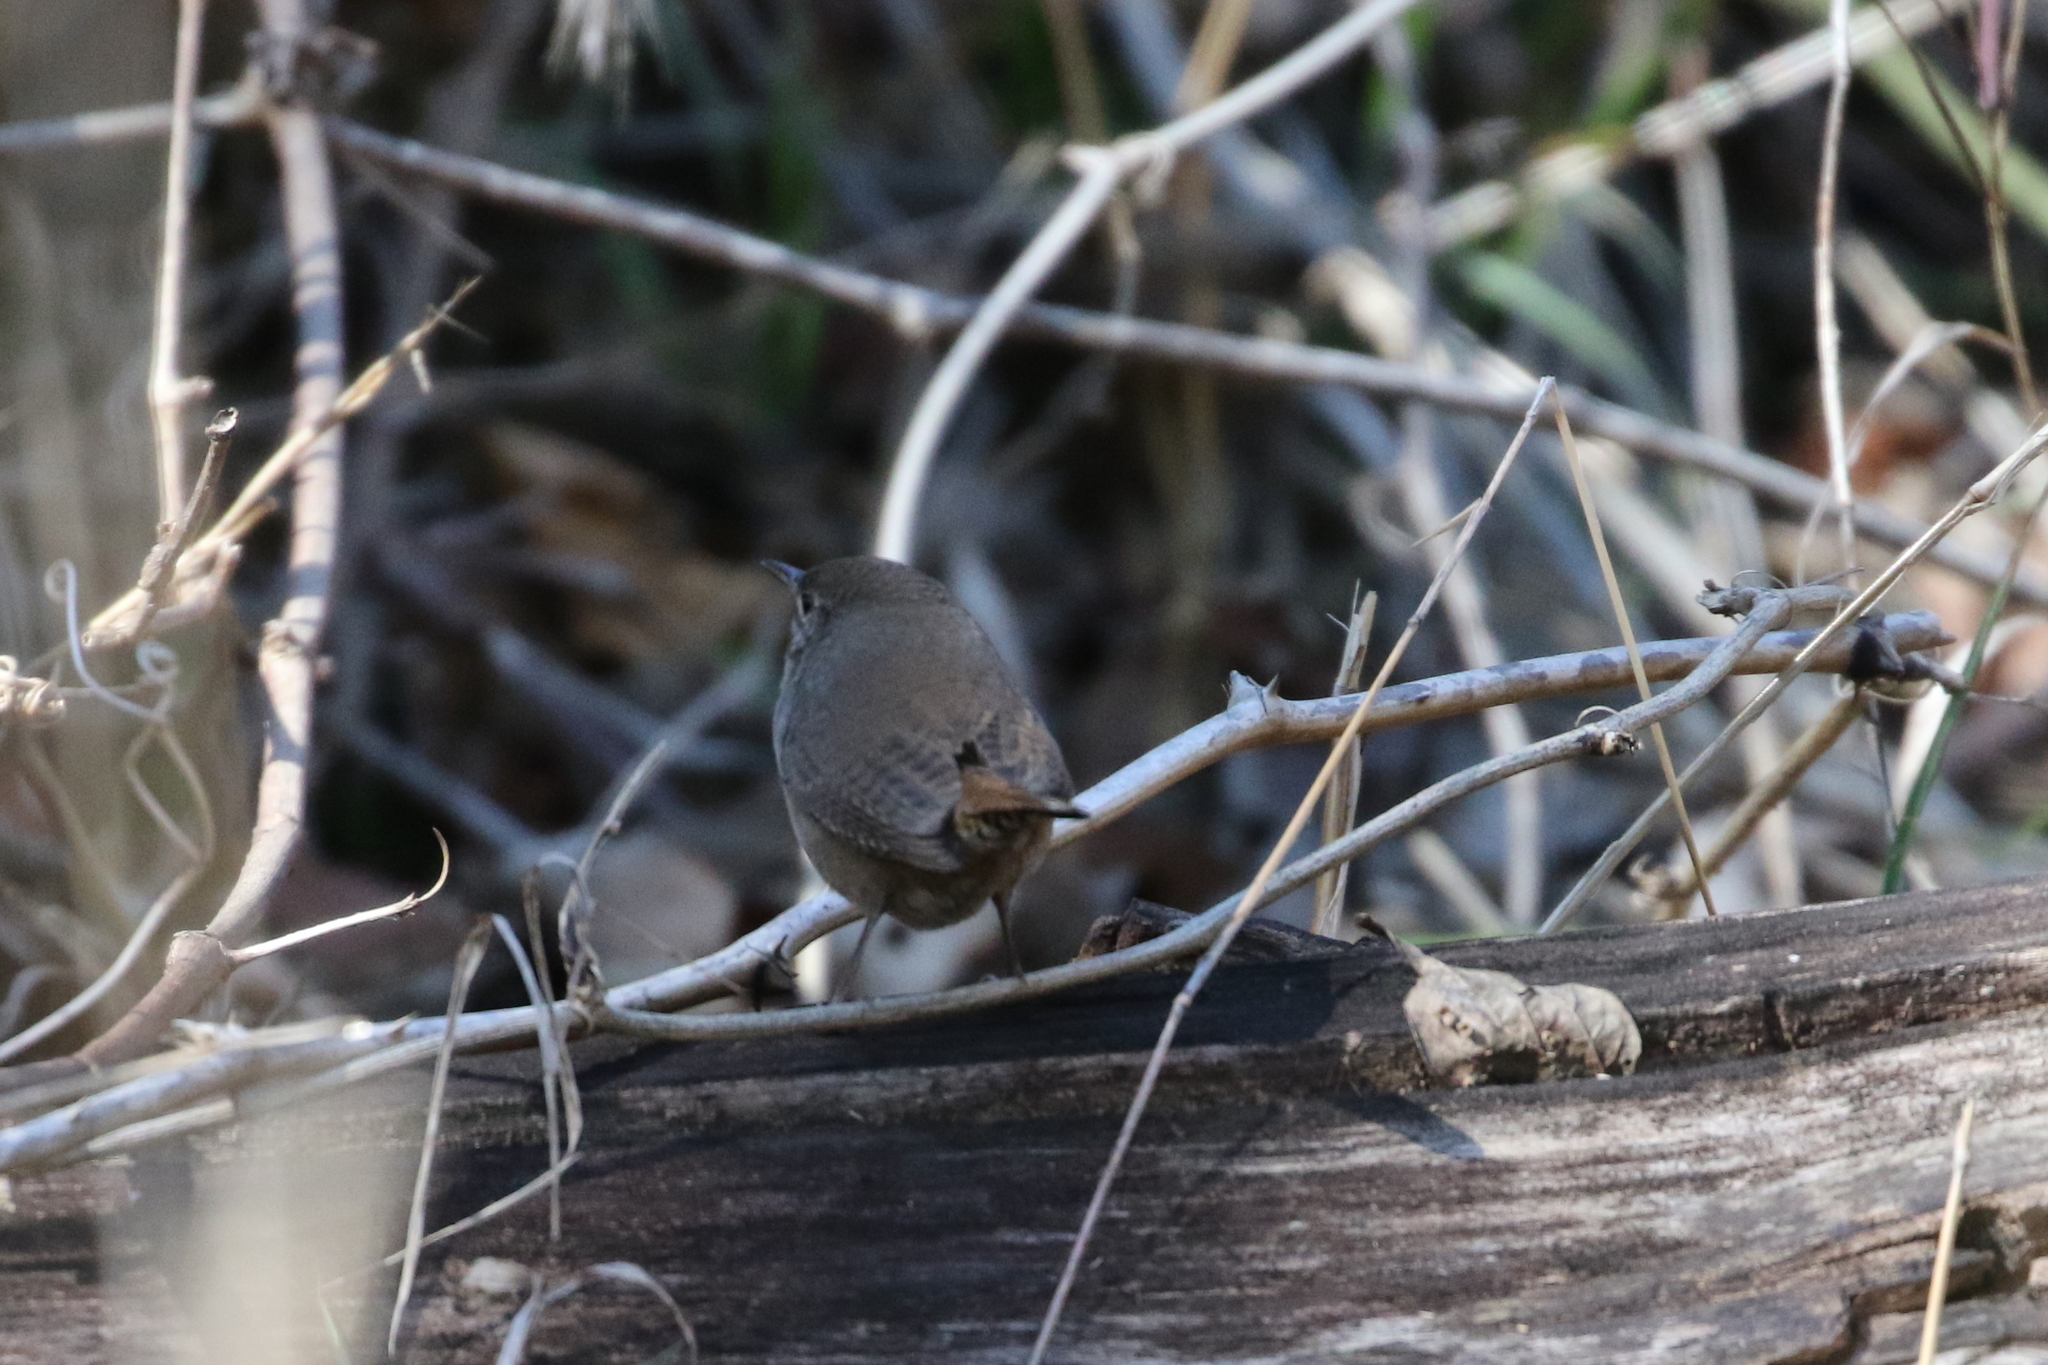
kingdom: Animalia
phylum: Chordata
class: Aves
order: Passeriformes
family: Troglodytidae
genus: Troglodytes
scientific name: Troglodytes aedon
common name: House wren
